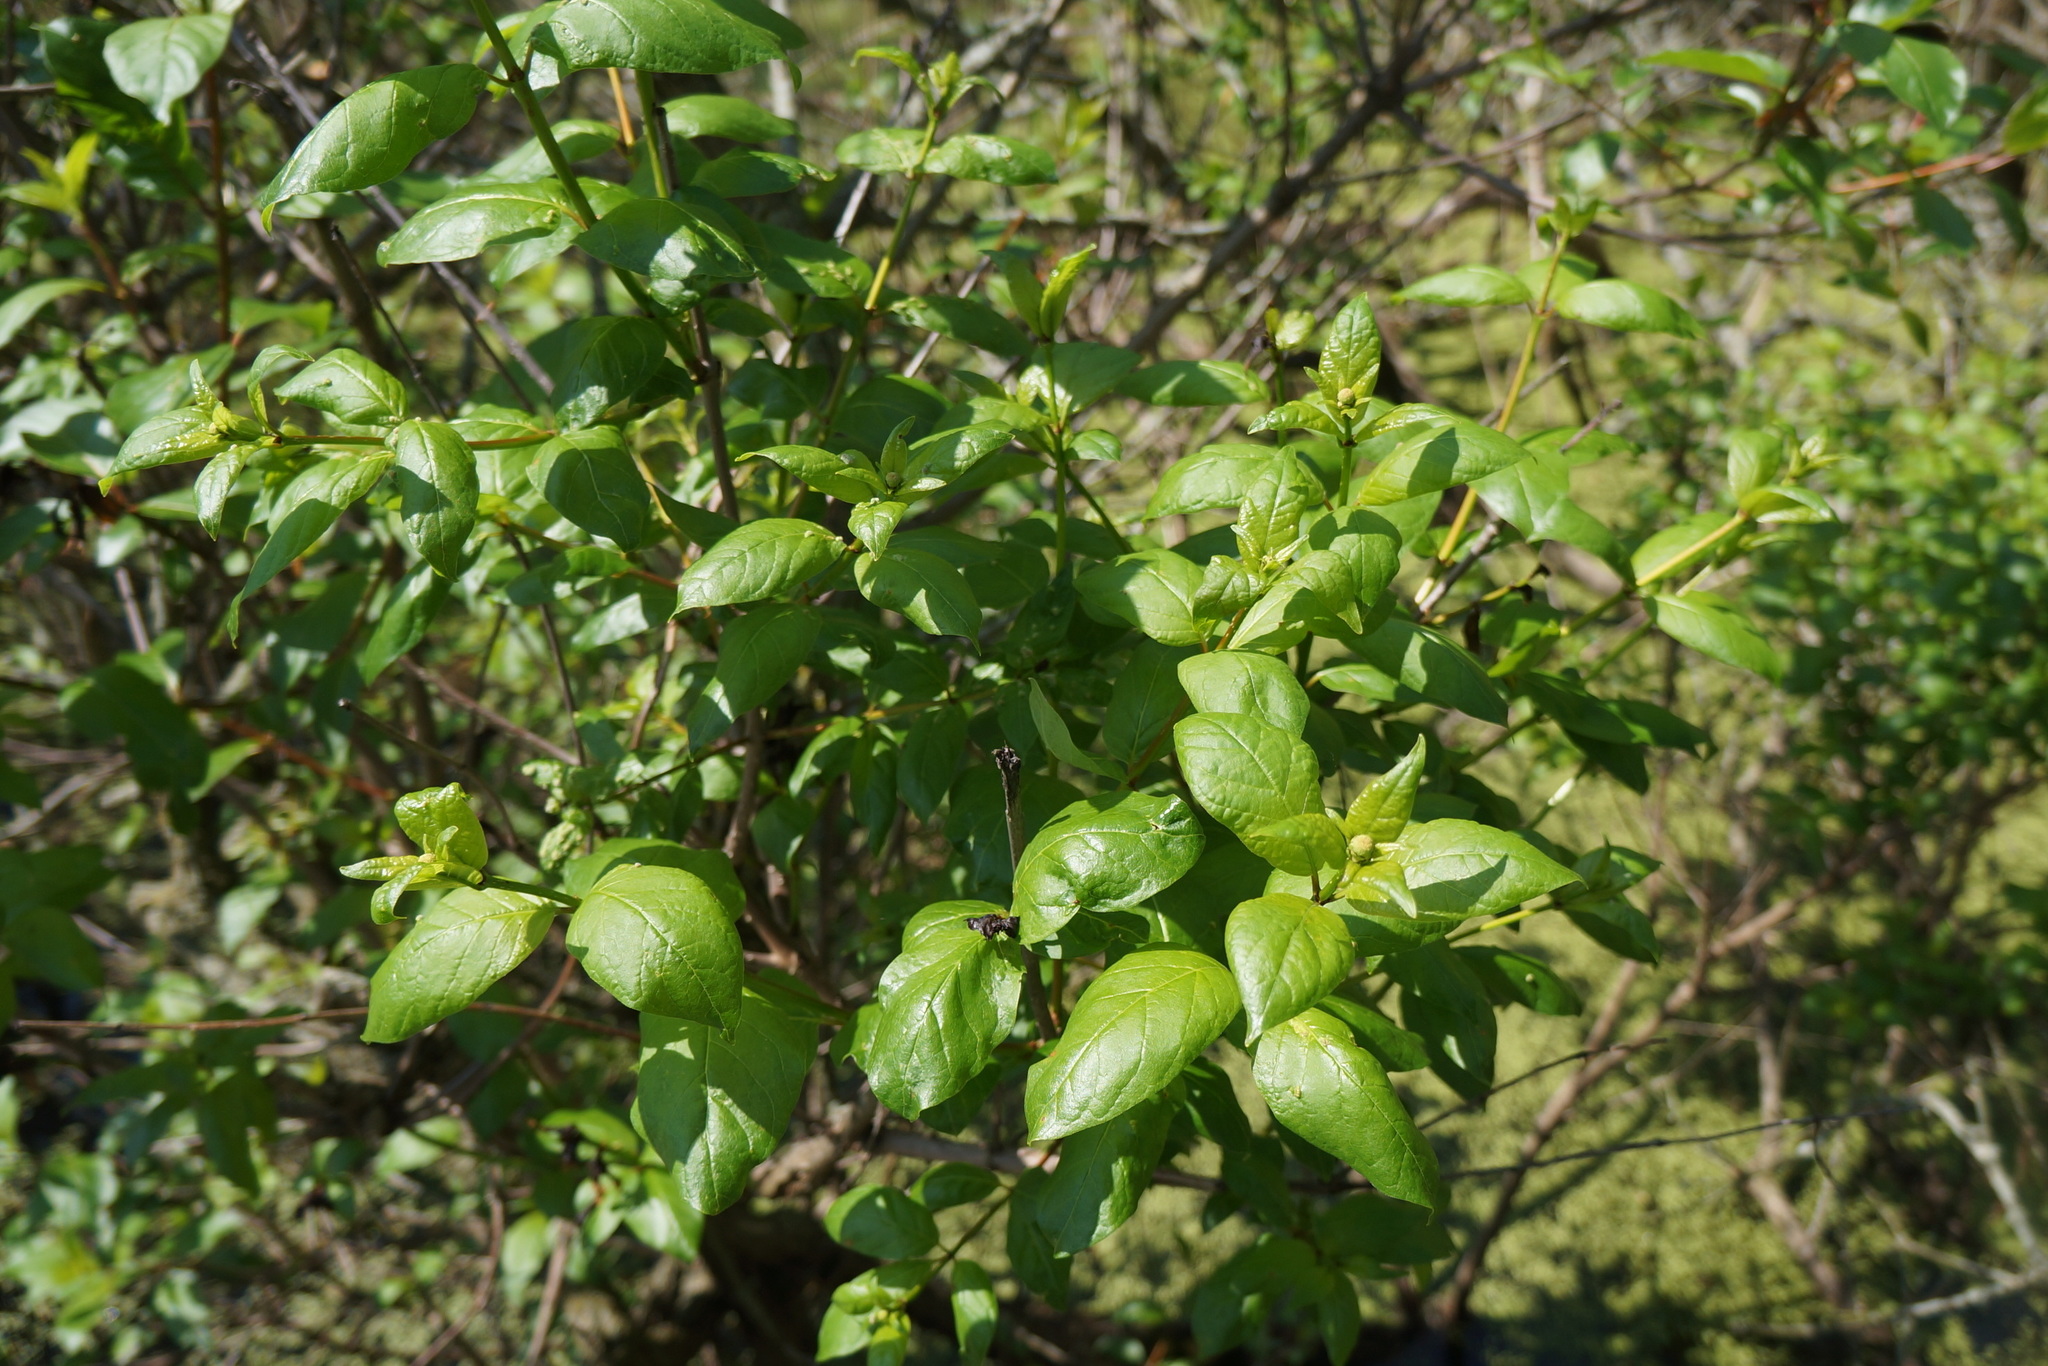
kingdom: Plantae
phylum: Tracheophyta
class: Magnoliopsida
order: Gentianales
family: Rubiaceae
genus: Cephalanthus
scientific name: Cephalanthus occidentalis
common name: Button-willow
